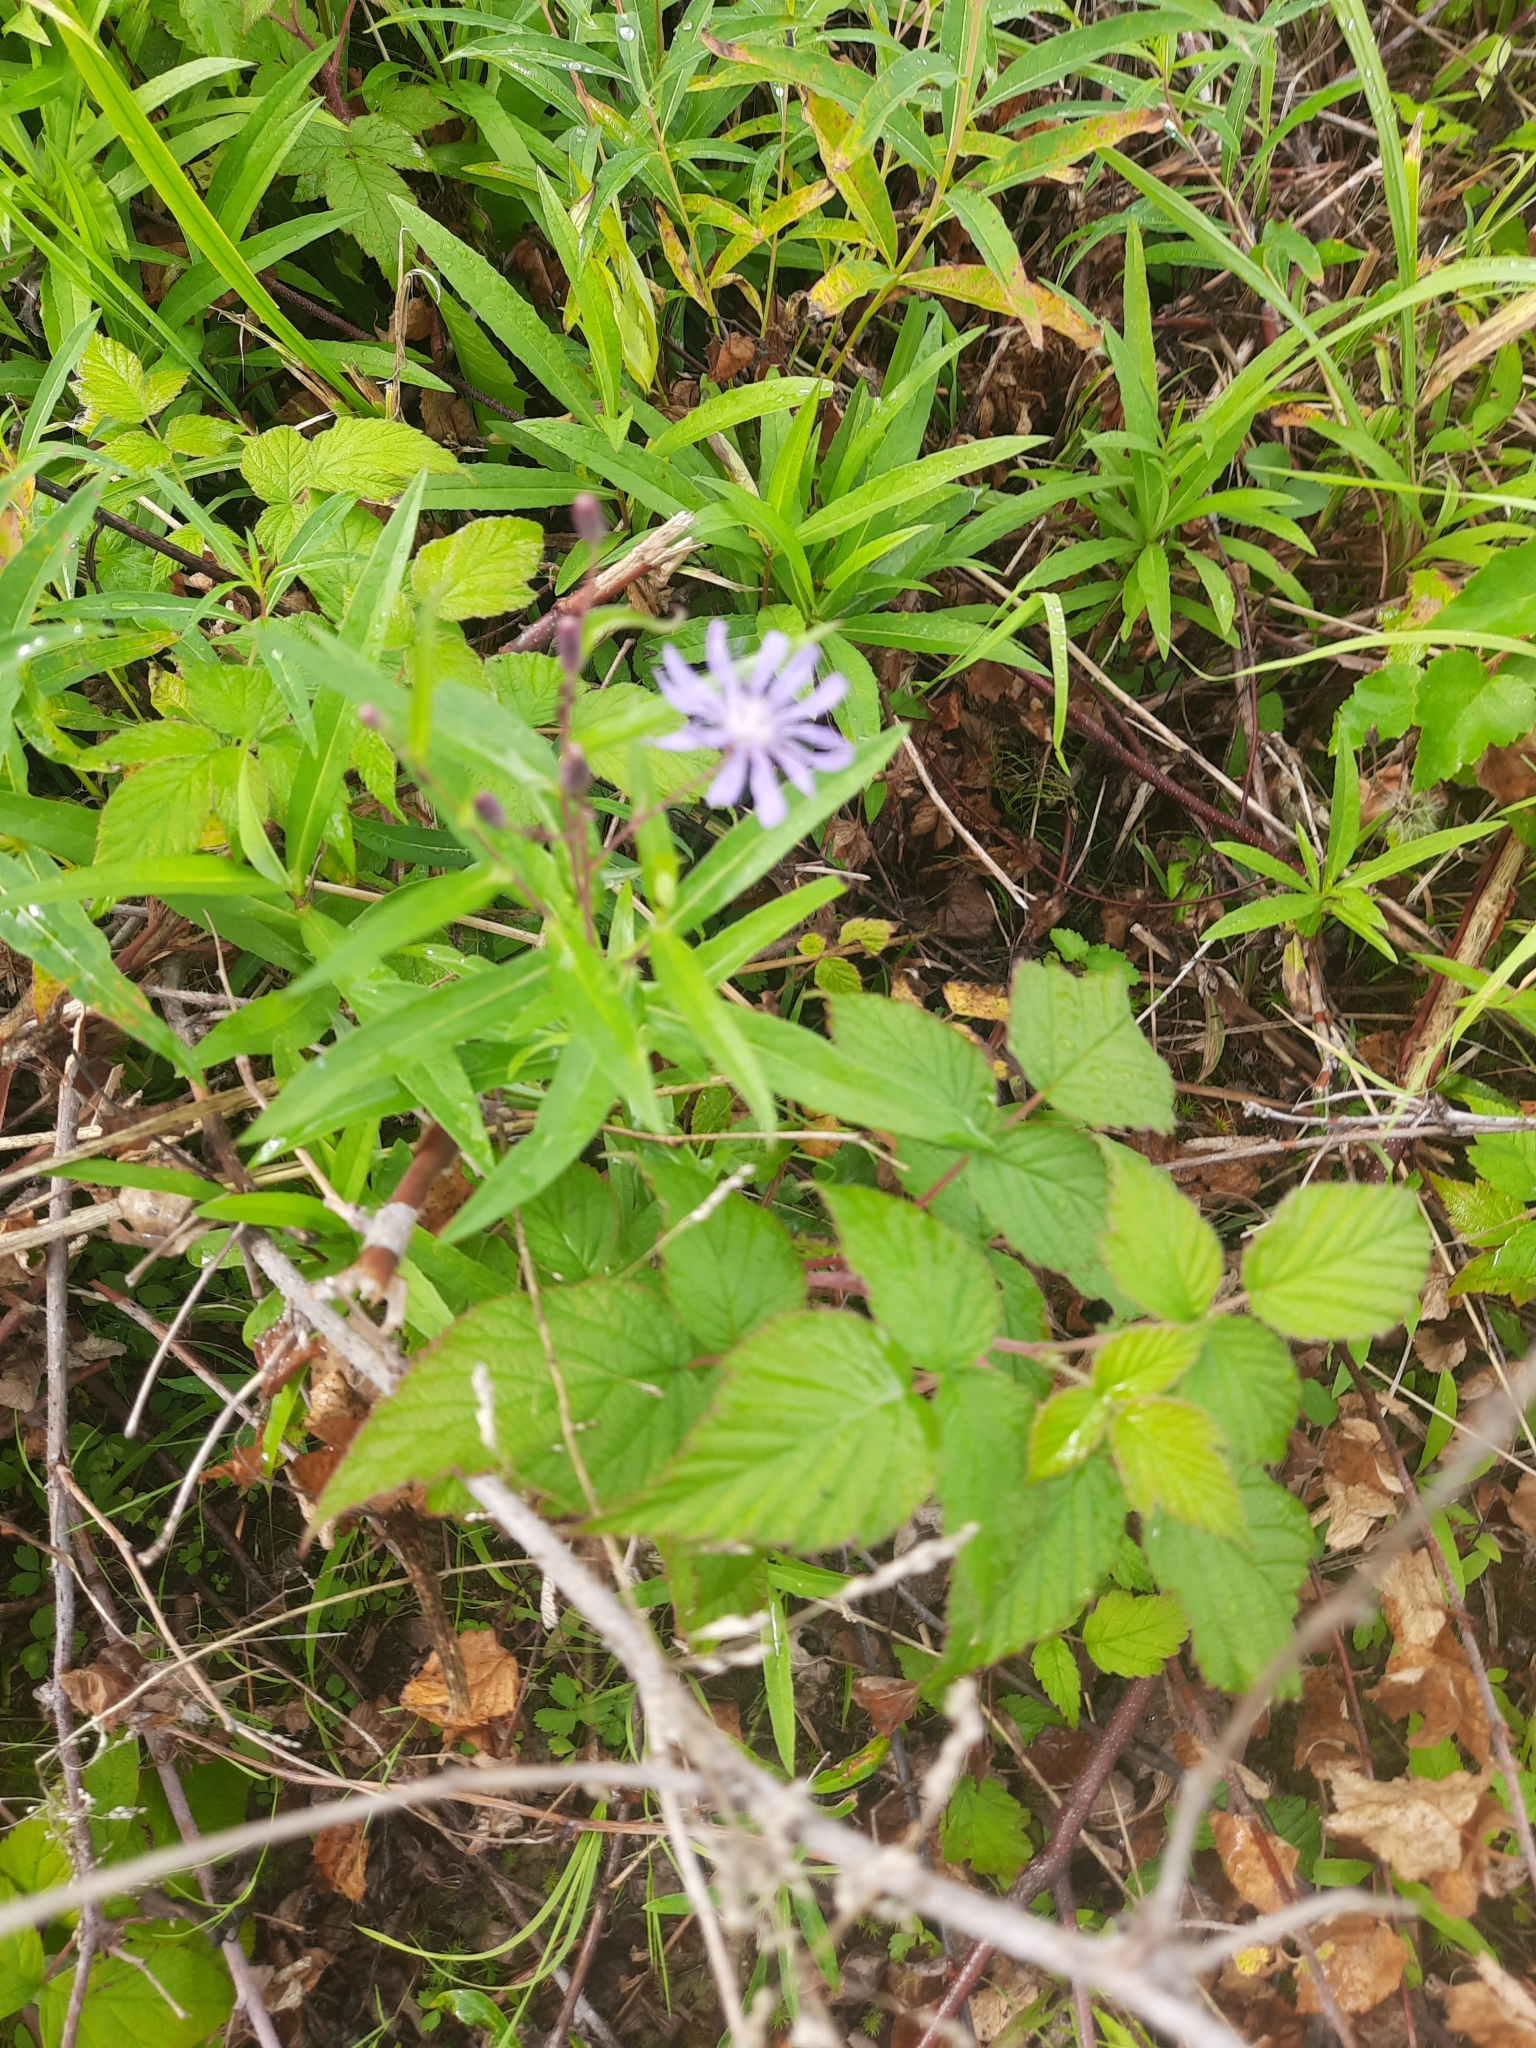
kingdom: Plantae
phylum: Tracheophyta
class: Magnoliopsida
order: Asterales
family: Asteraceae
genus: Lactuca
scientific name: Lactuca sibirica
